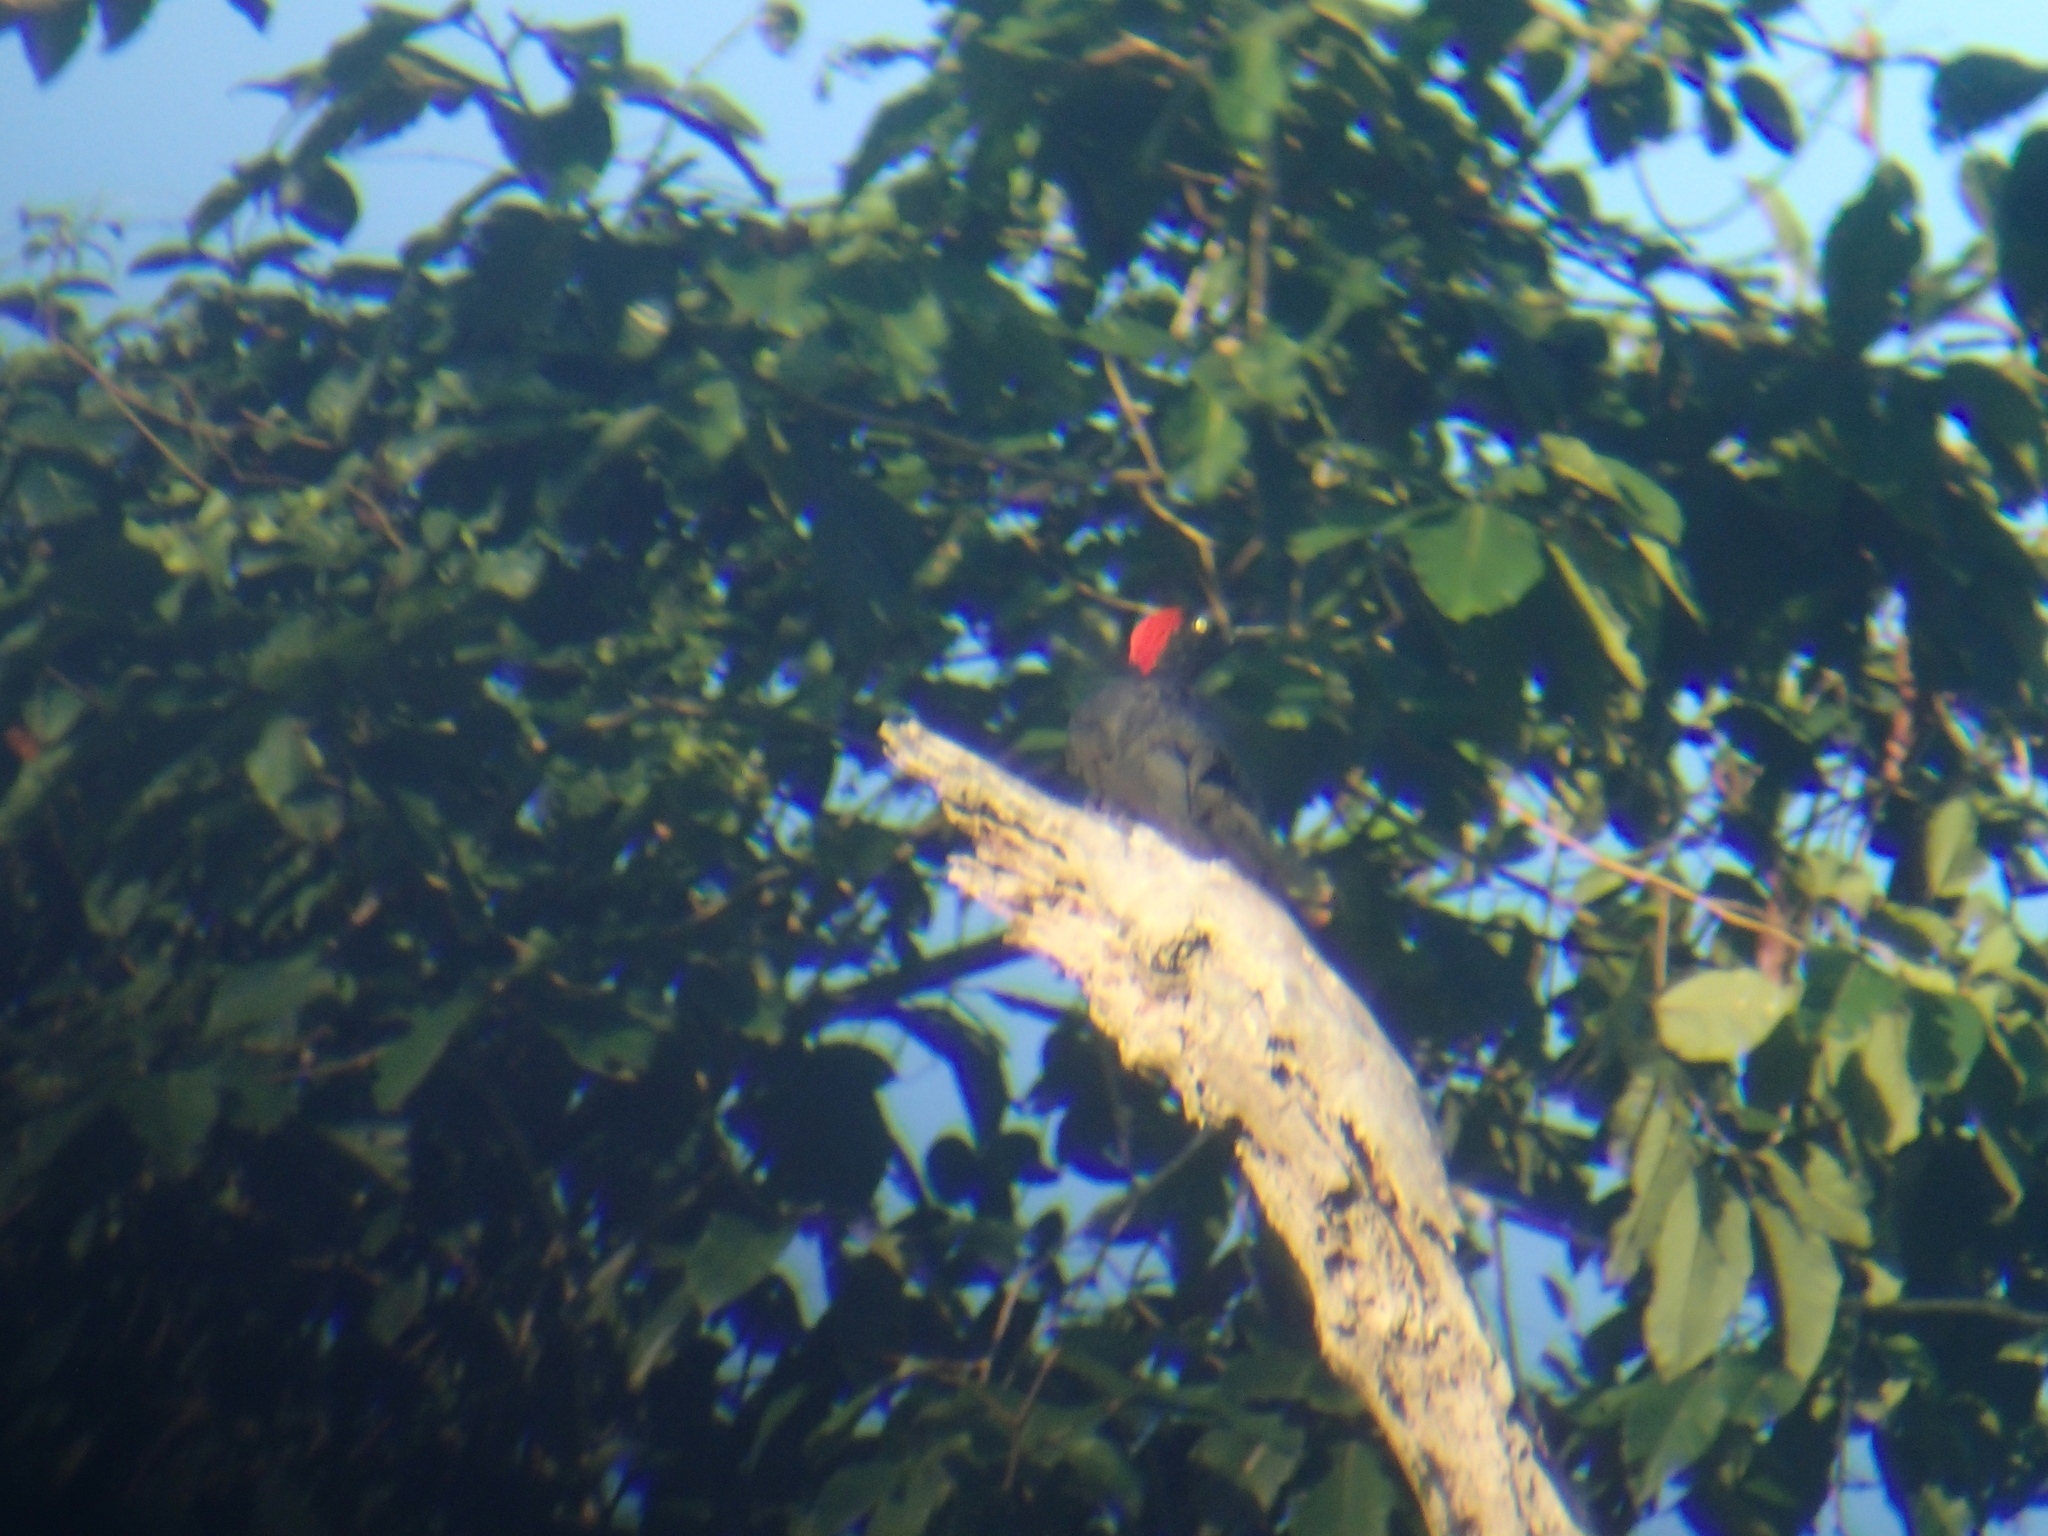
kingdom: Animalia
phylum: Chordata
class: Aves
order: Piciformes
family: Picidae
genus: Dryocopus
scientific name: Dryocopus hodgei
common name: Andaman woodpecker
